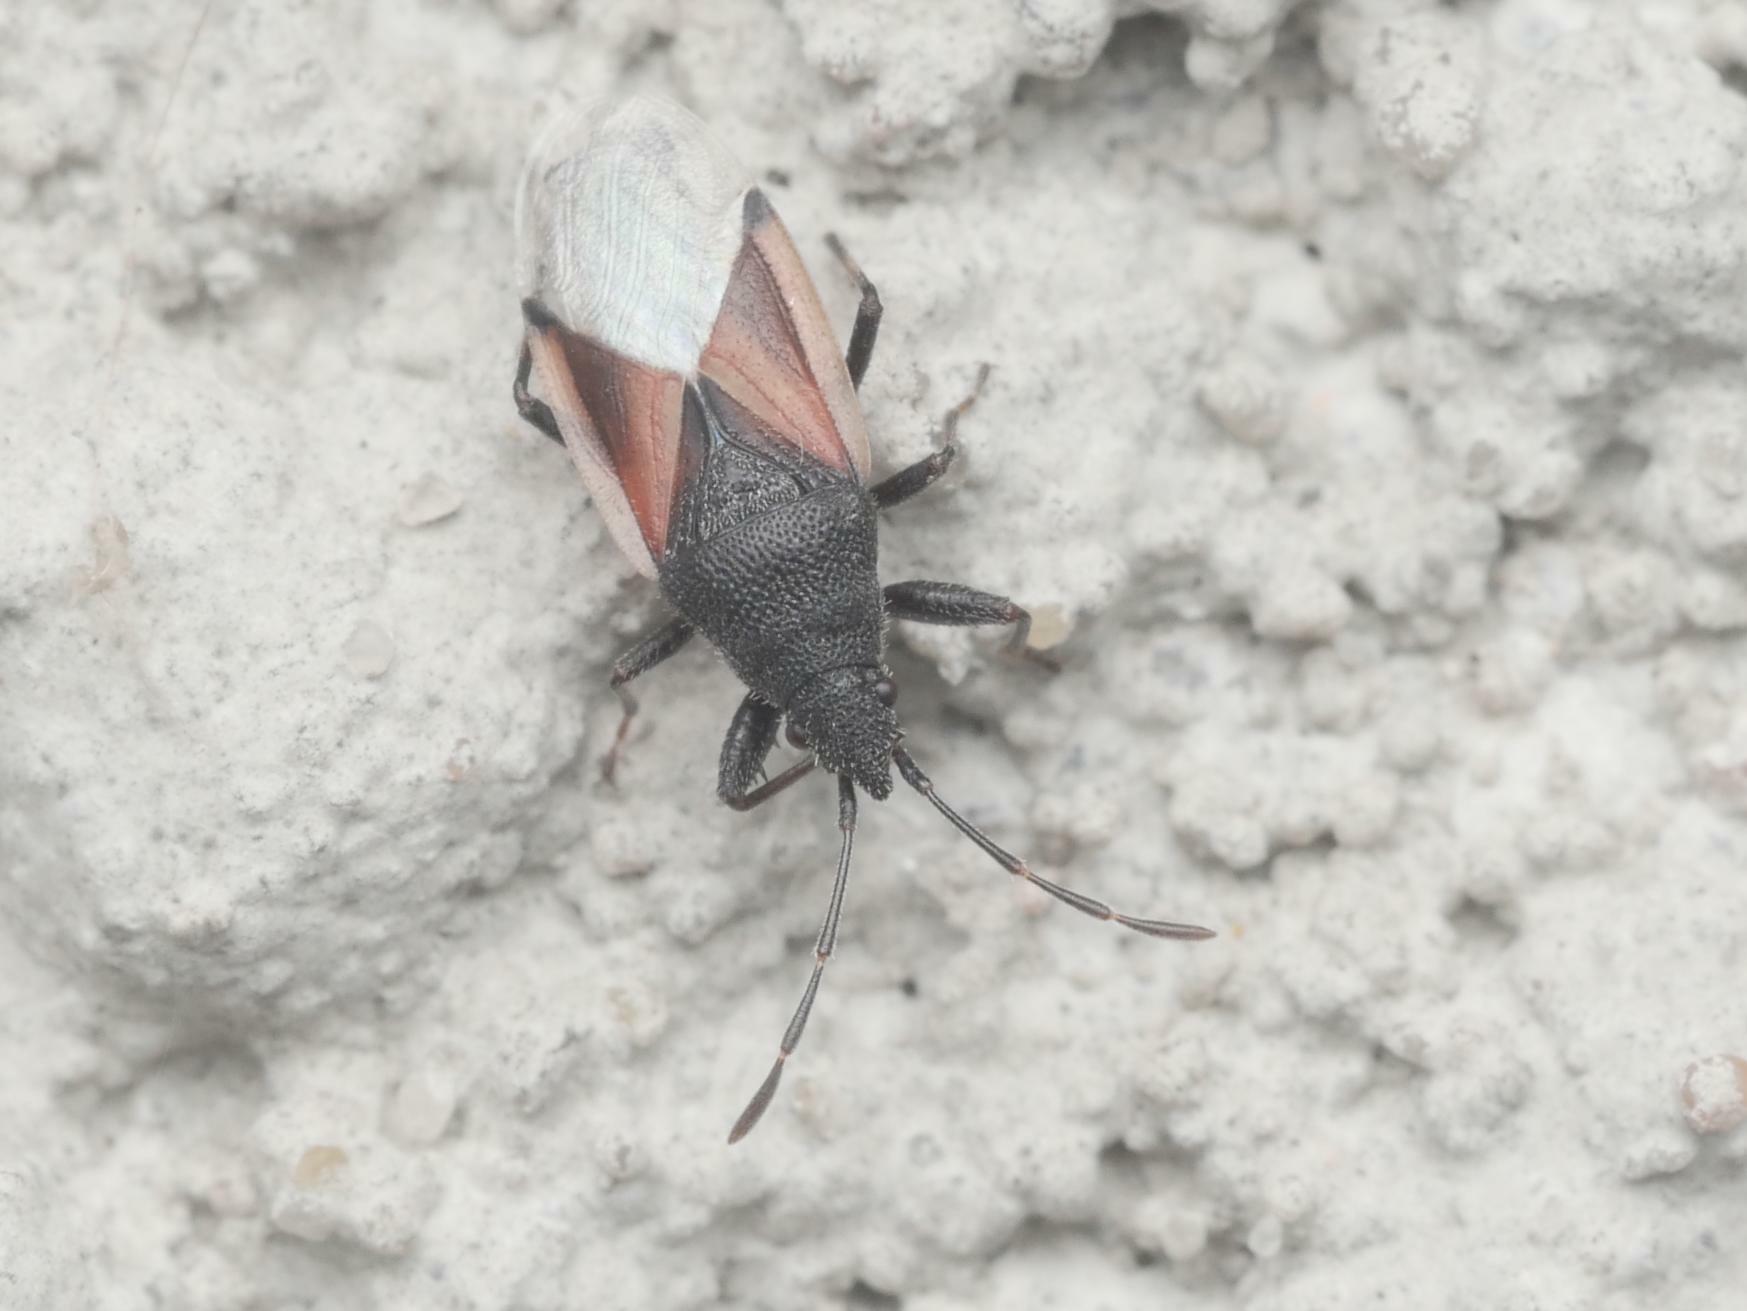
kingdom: Animalia
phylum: Arthropoda
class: Insecta
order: Hemiptera
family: Oxycarenidae
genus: Oxycarenus
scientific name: Oxycarenus lavaterae
